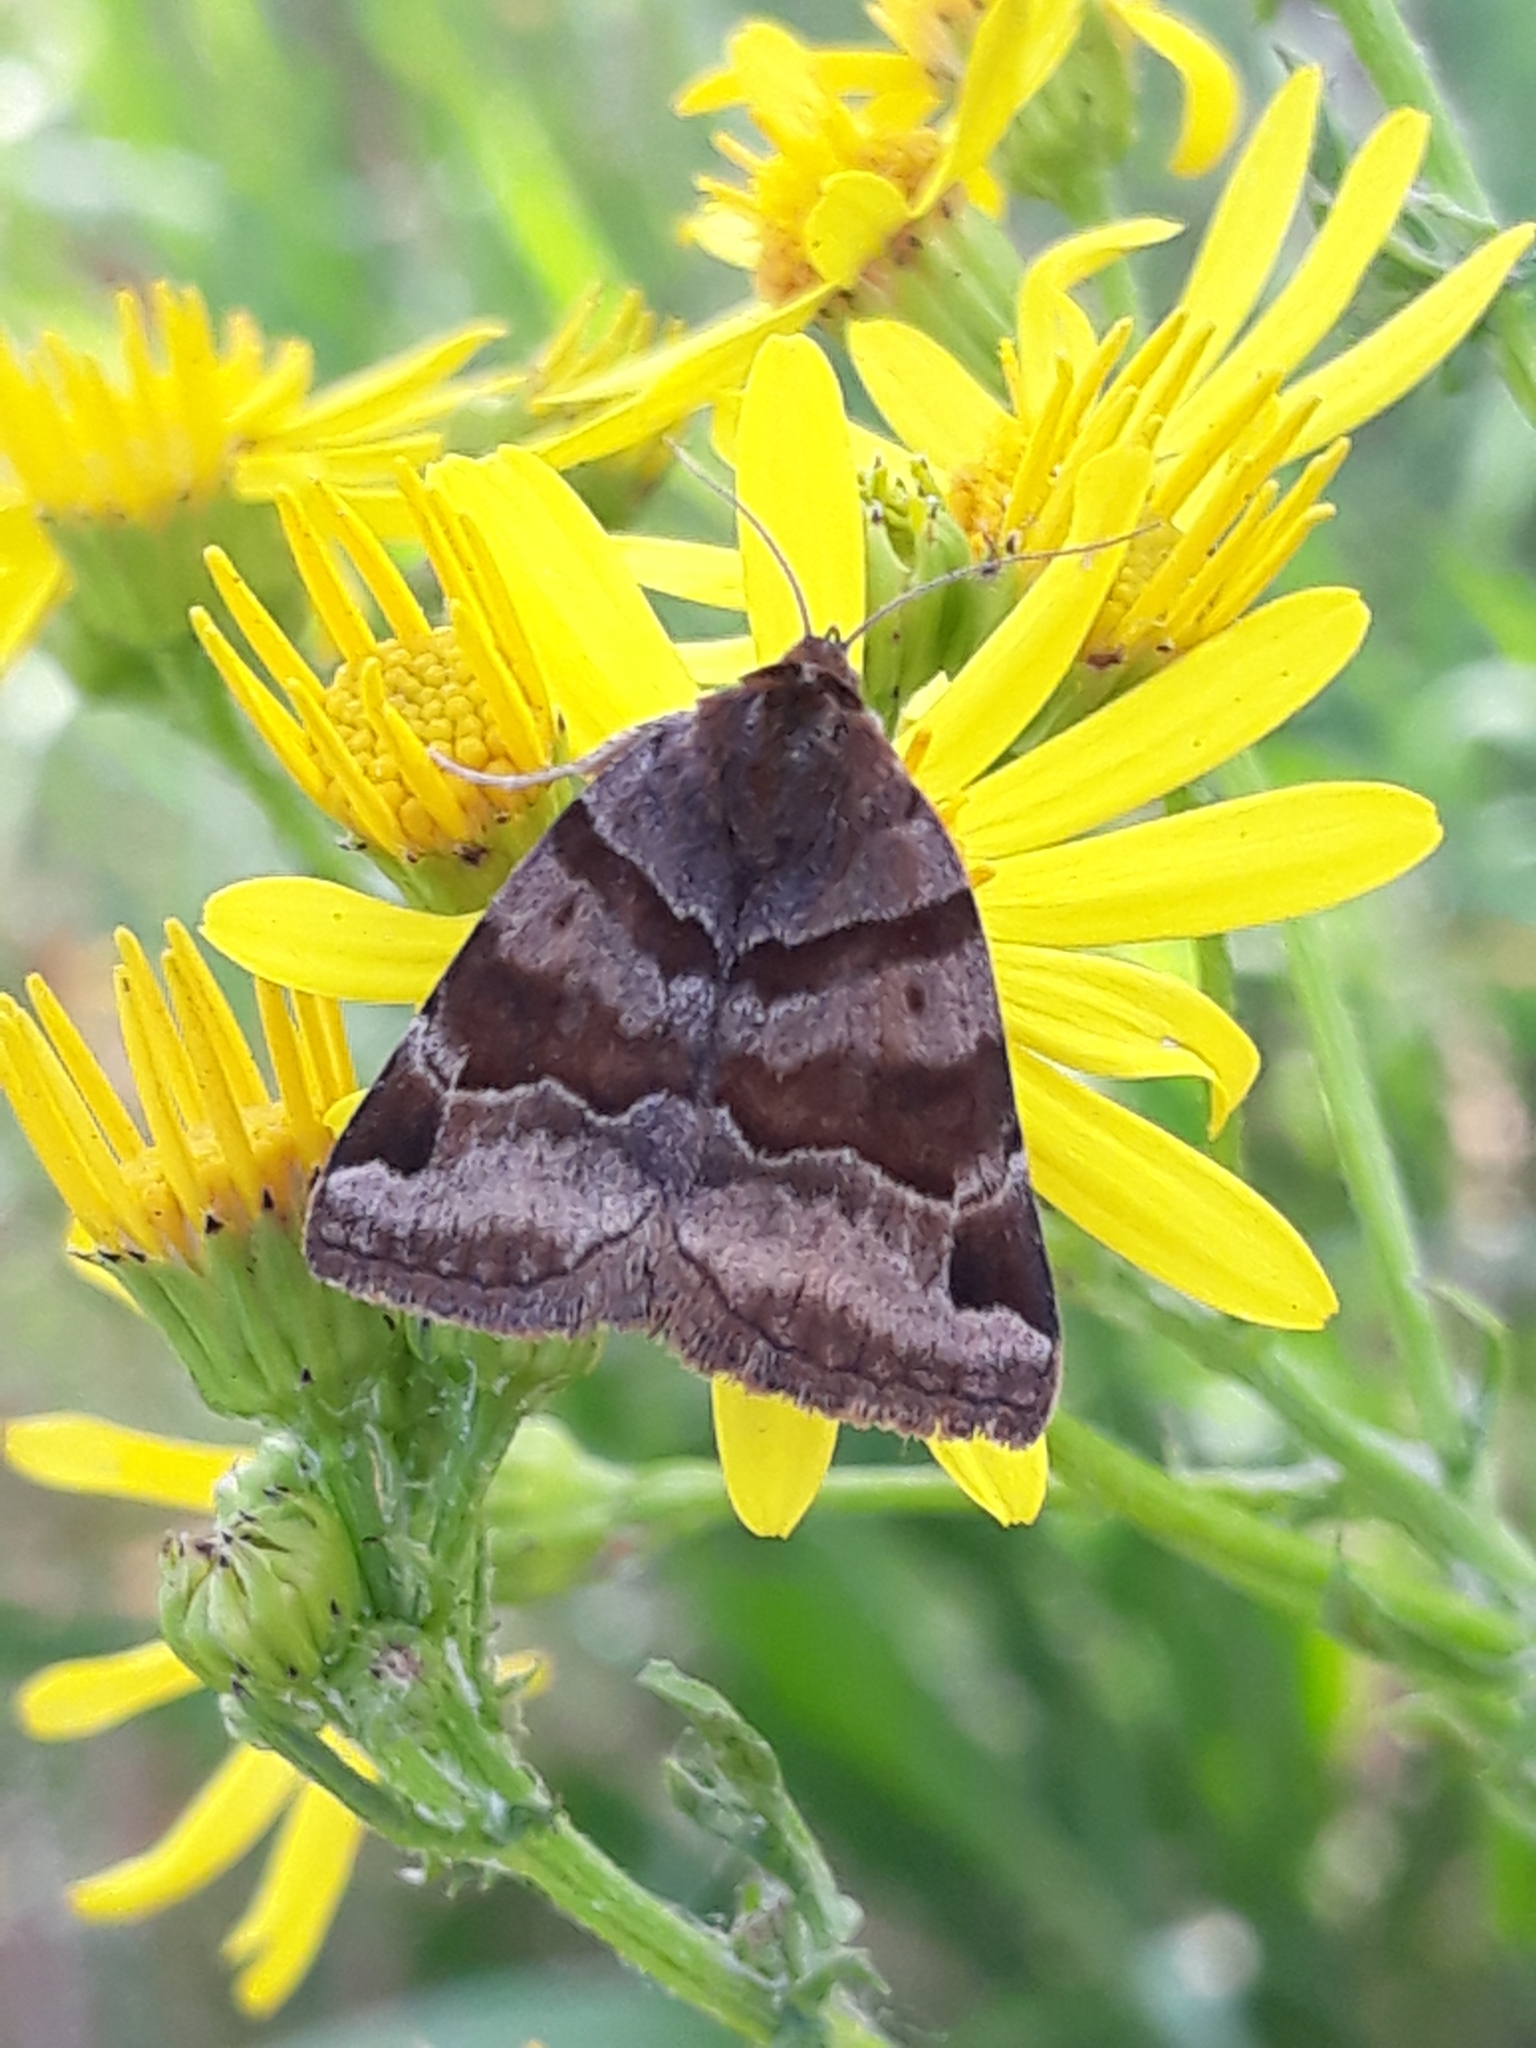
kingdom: Animalia
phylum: Arthropoda
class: Insecta
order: Lepidoptera
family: Erebidae
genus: Euclidia
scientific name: Euclidia glyphica
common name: Burnet companion
